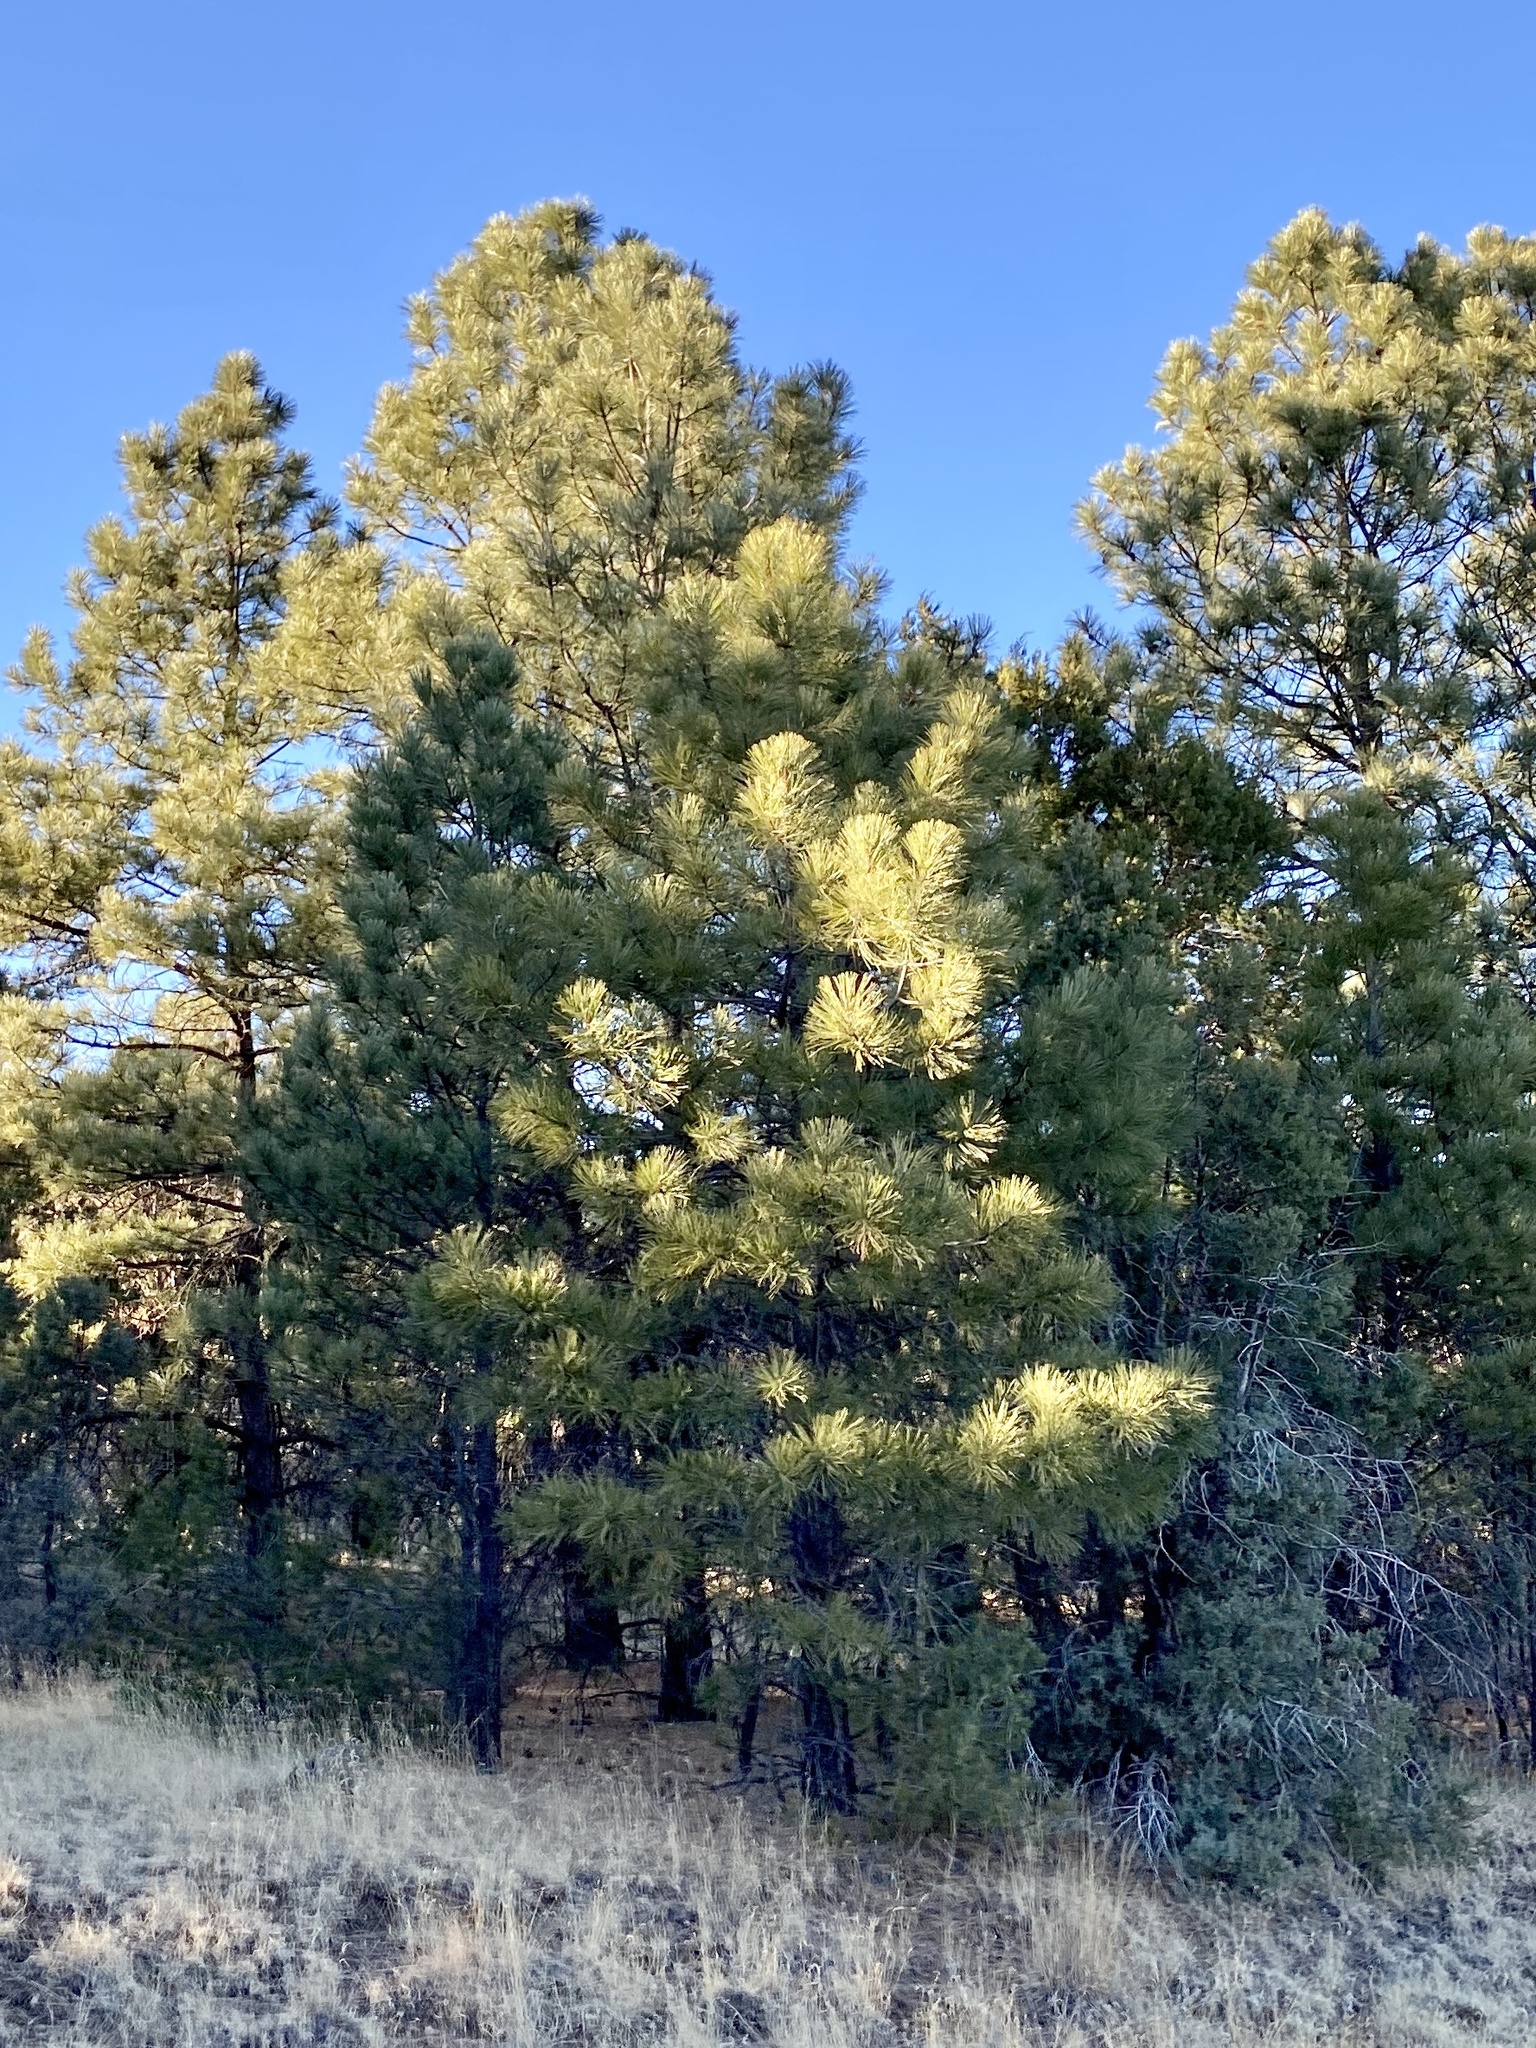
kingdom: Plantae
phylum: Tracheophyta
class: Pinopsida
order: Pinales
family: Pinaceae
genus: Pinus
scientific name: Pinus ponderosa
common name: Western yellow-pine
